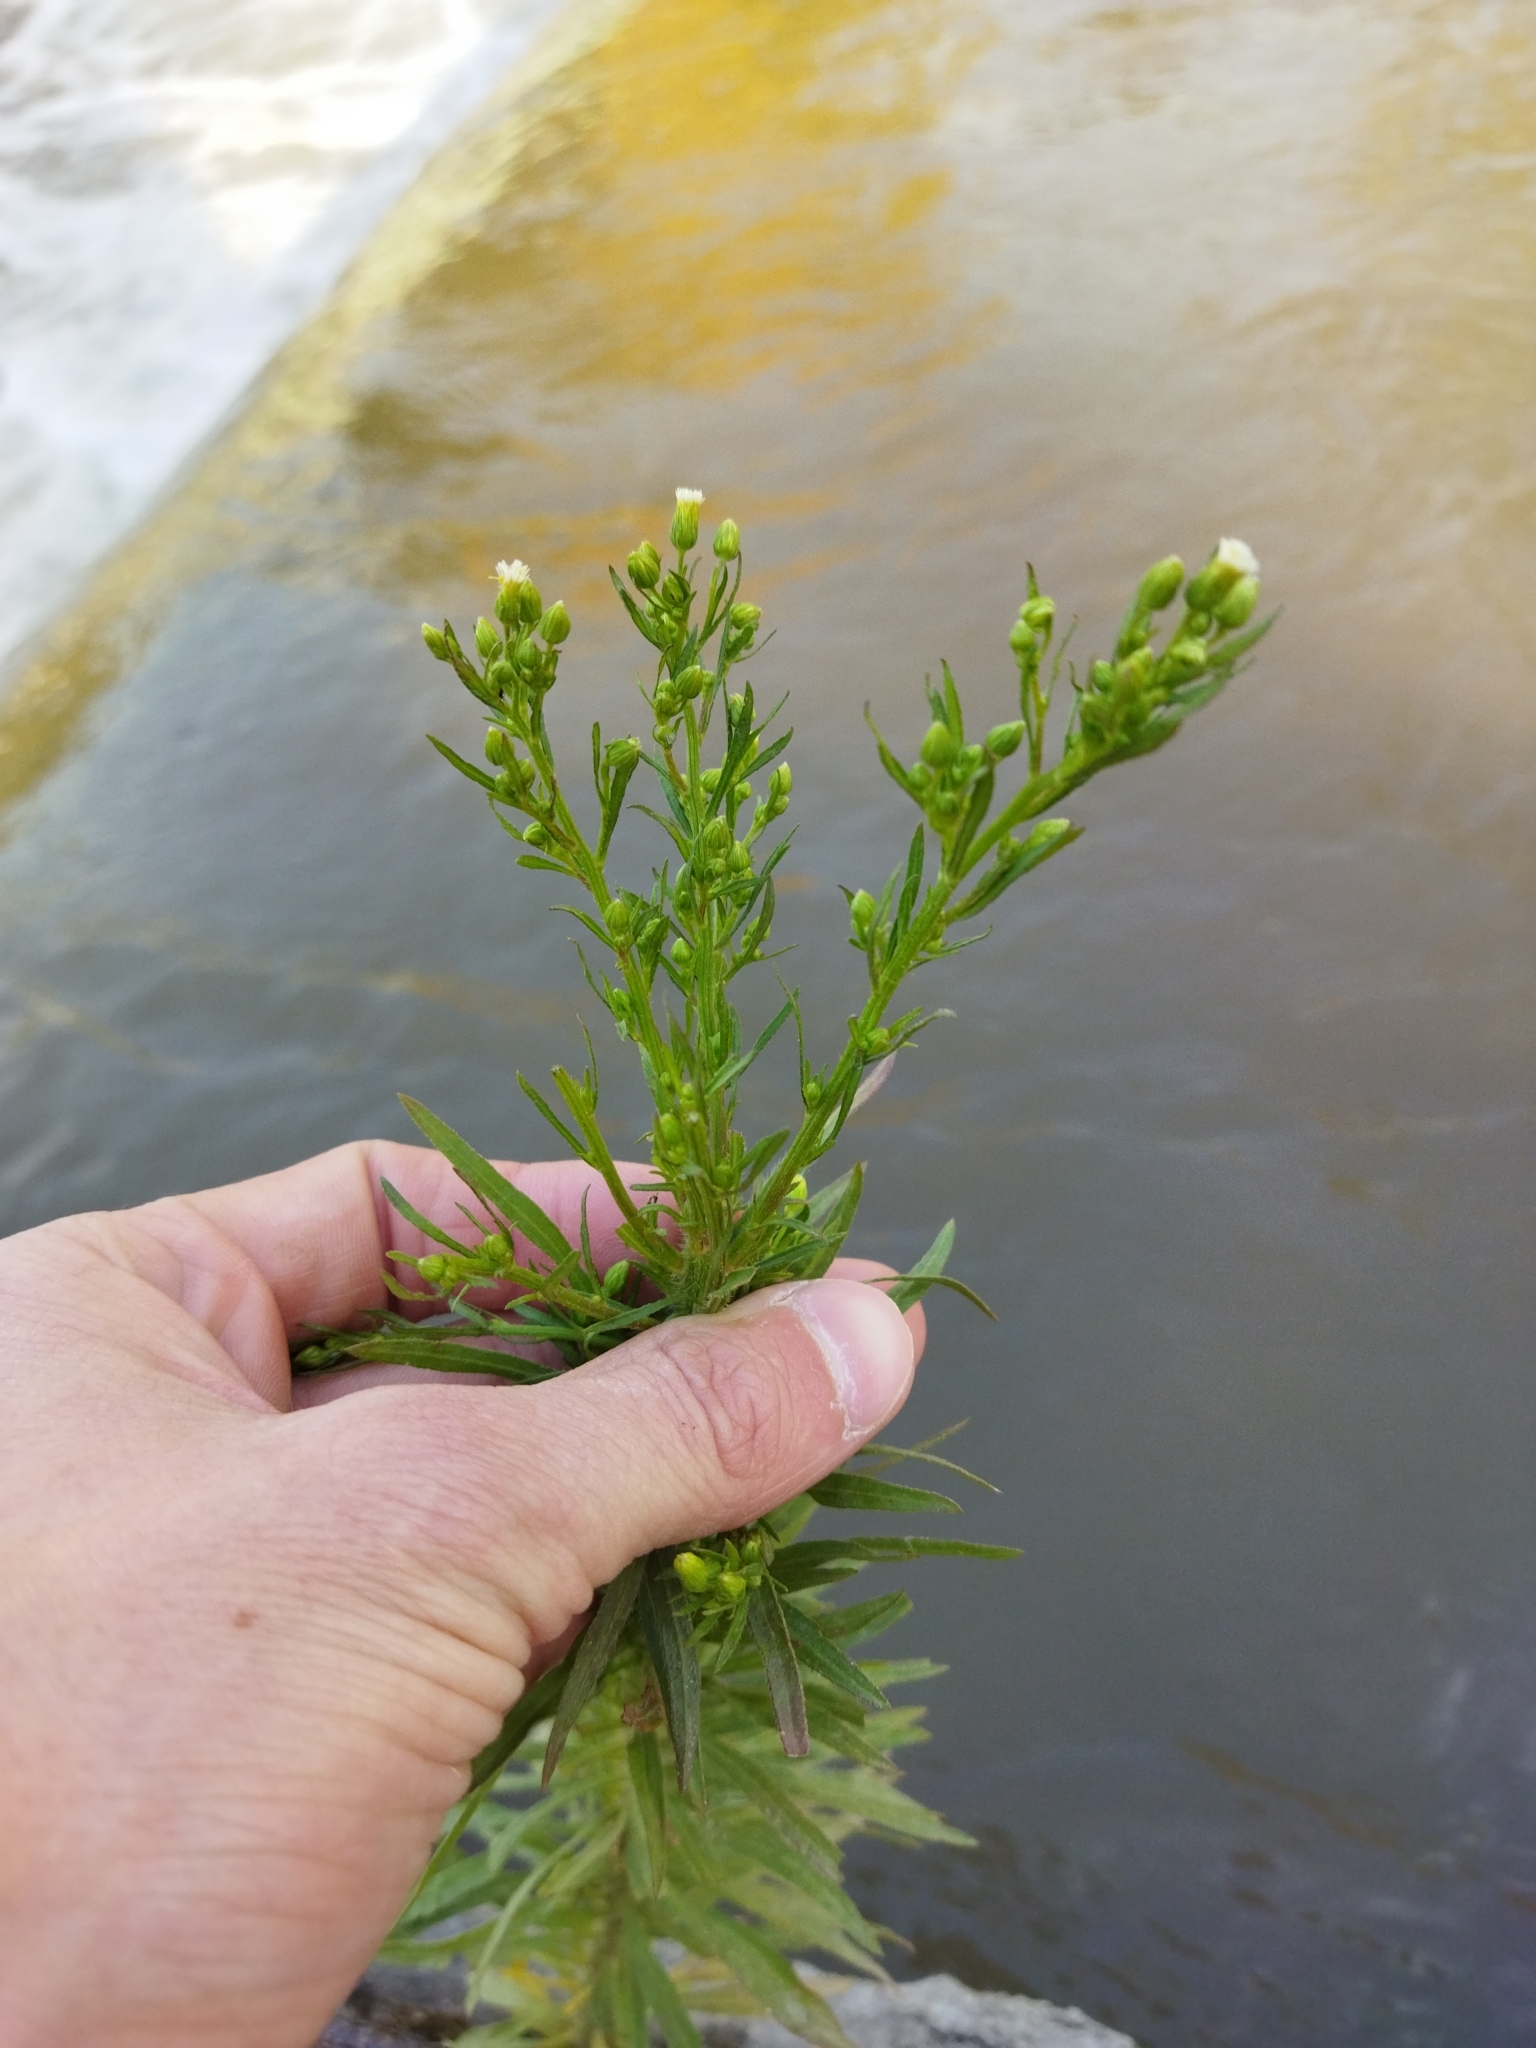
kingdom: Plantae
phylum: Tracheophyta
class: Magnoliopsida
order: Asterales
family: Asteraceae
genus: Erigeron
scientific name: Erigeron canadensis
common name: Canadian fleabane
